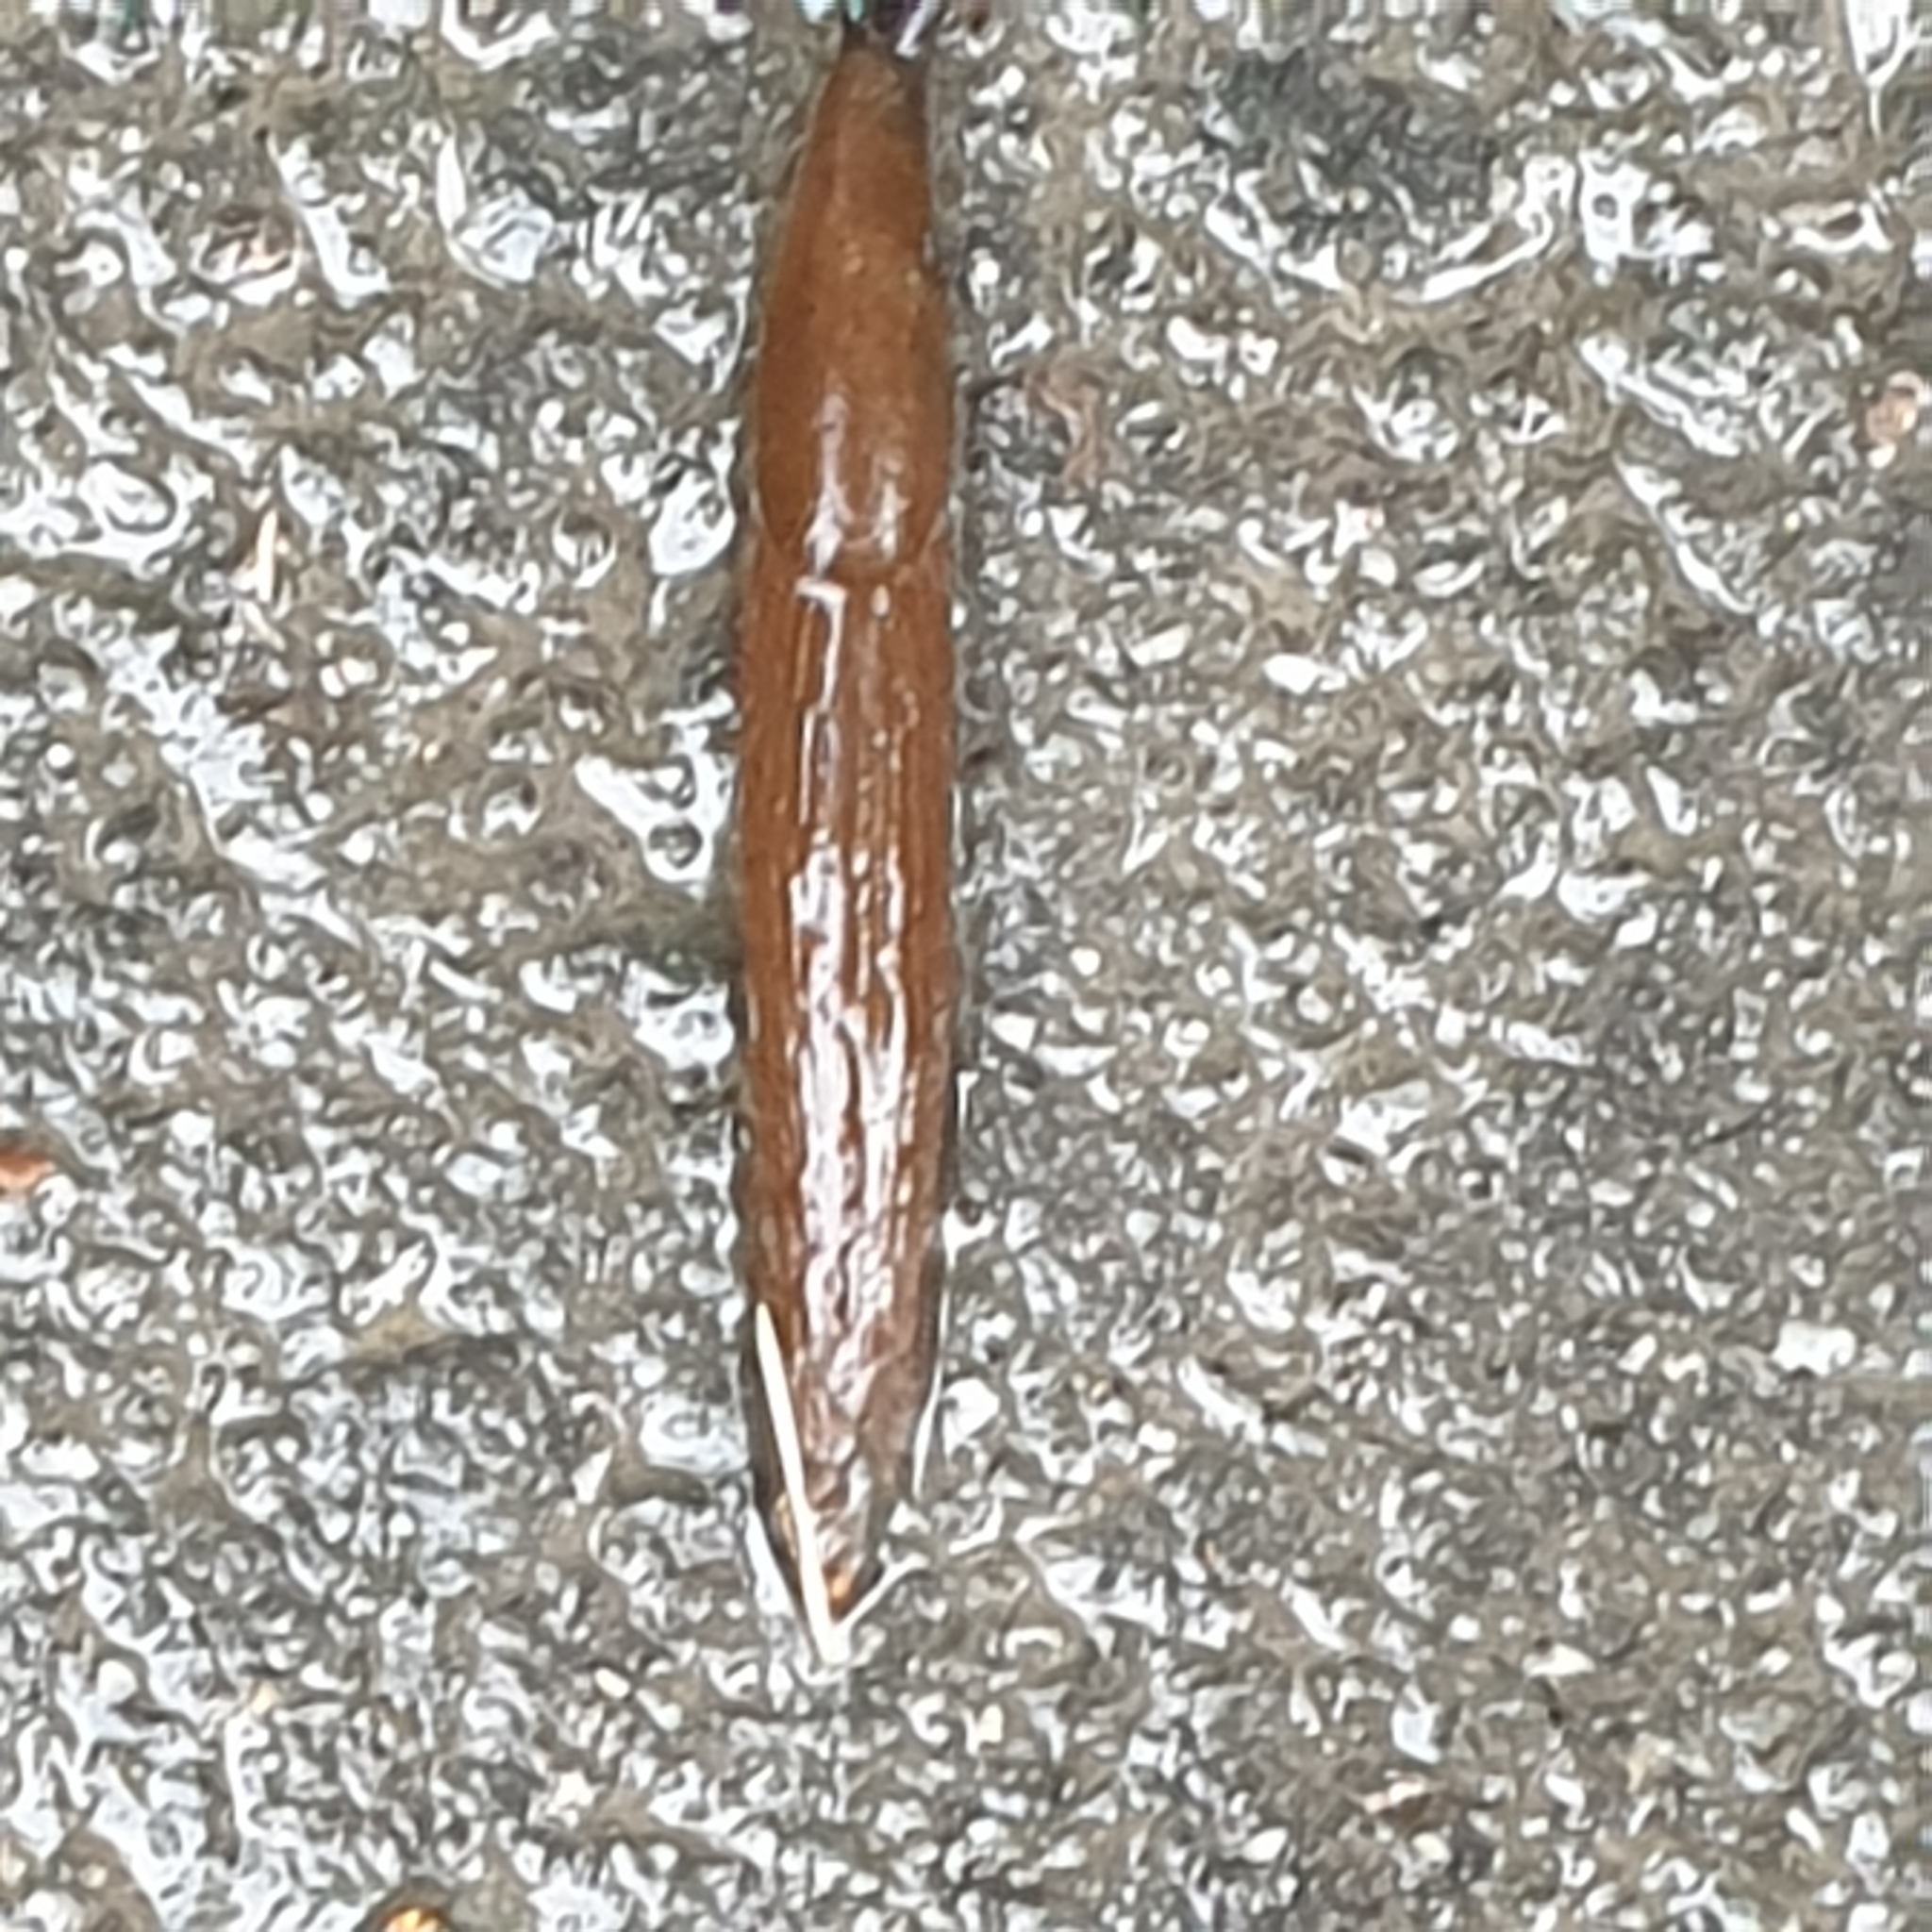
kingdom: Animalia
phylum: Mollusca
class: Gastropoda
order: Stylommatophora
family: Arionidae
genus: Arion
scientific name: Arion vulgaris
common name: Lusitanian slug
